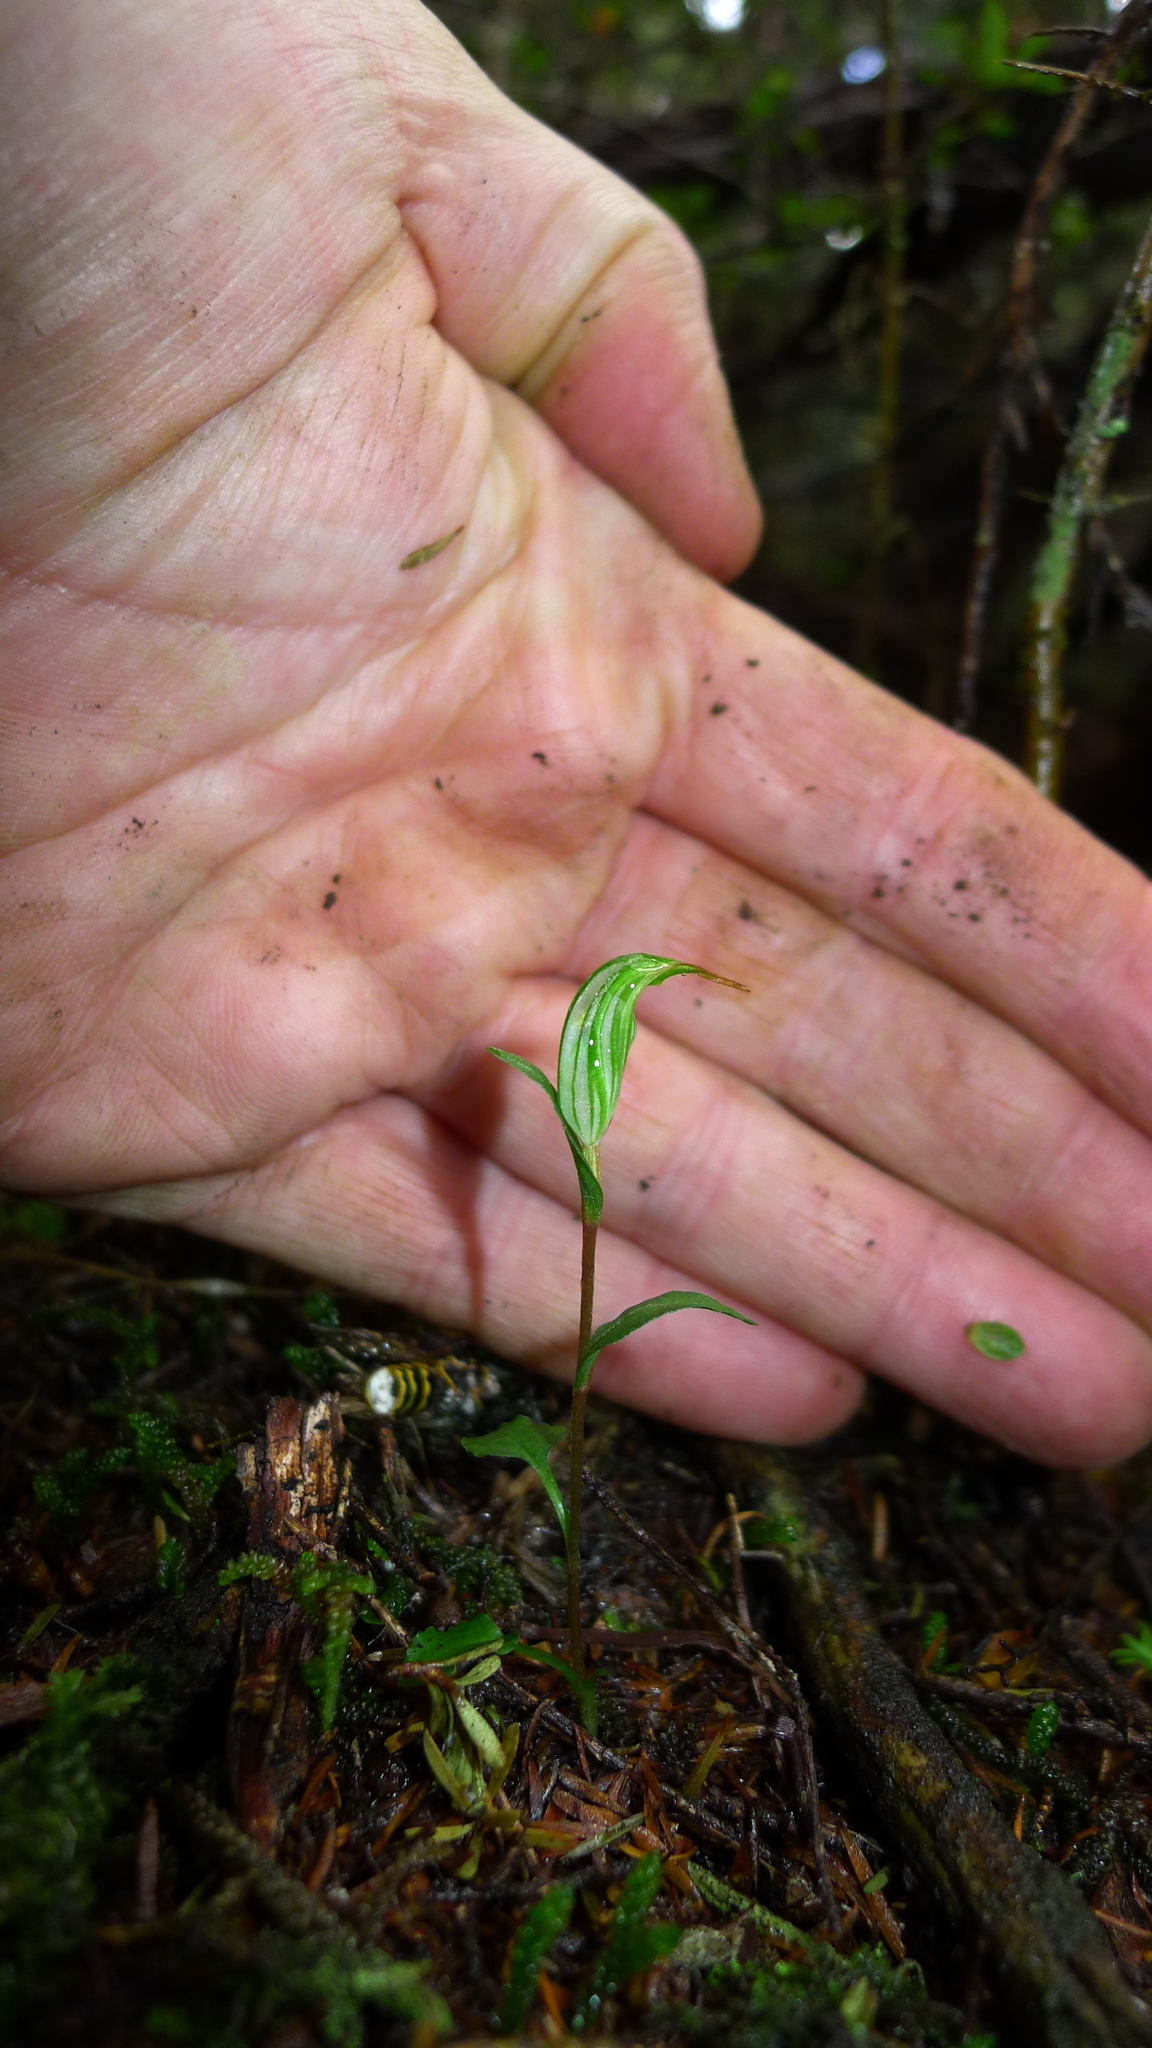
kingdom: Plantae
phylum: Tracheophyta
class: Liliopsida
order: Asparagales
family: Orchidaceae
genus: Pterostylis
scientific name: Pterostylis alobula
